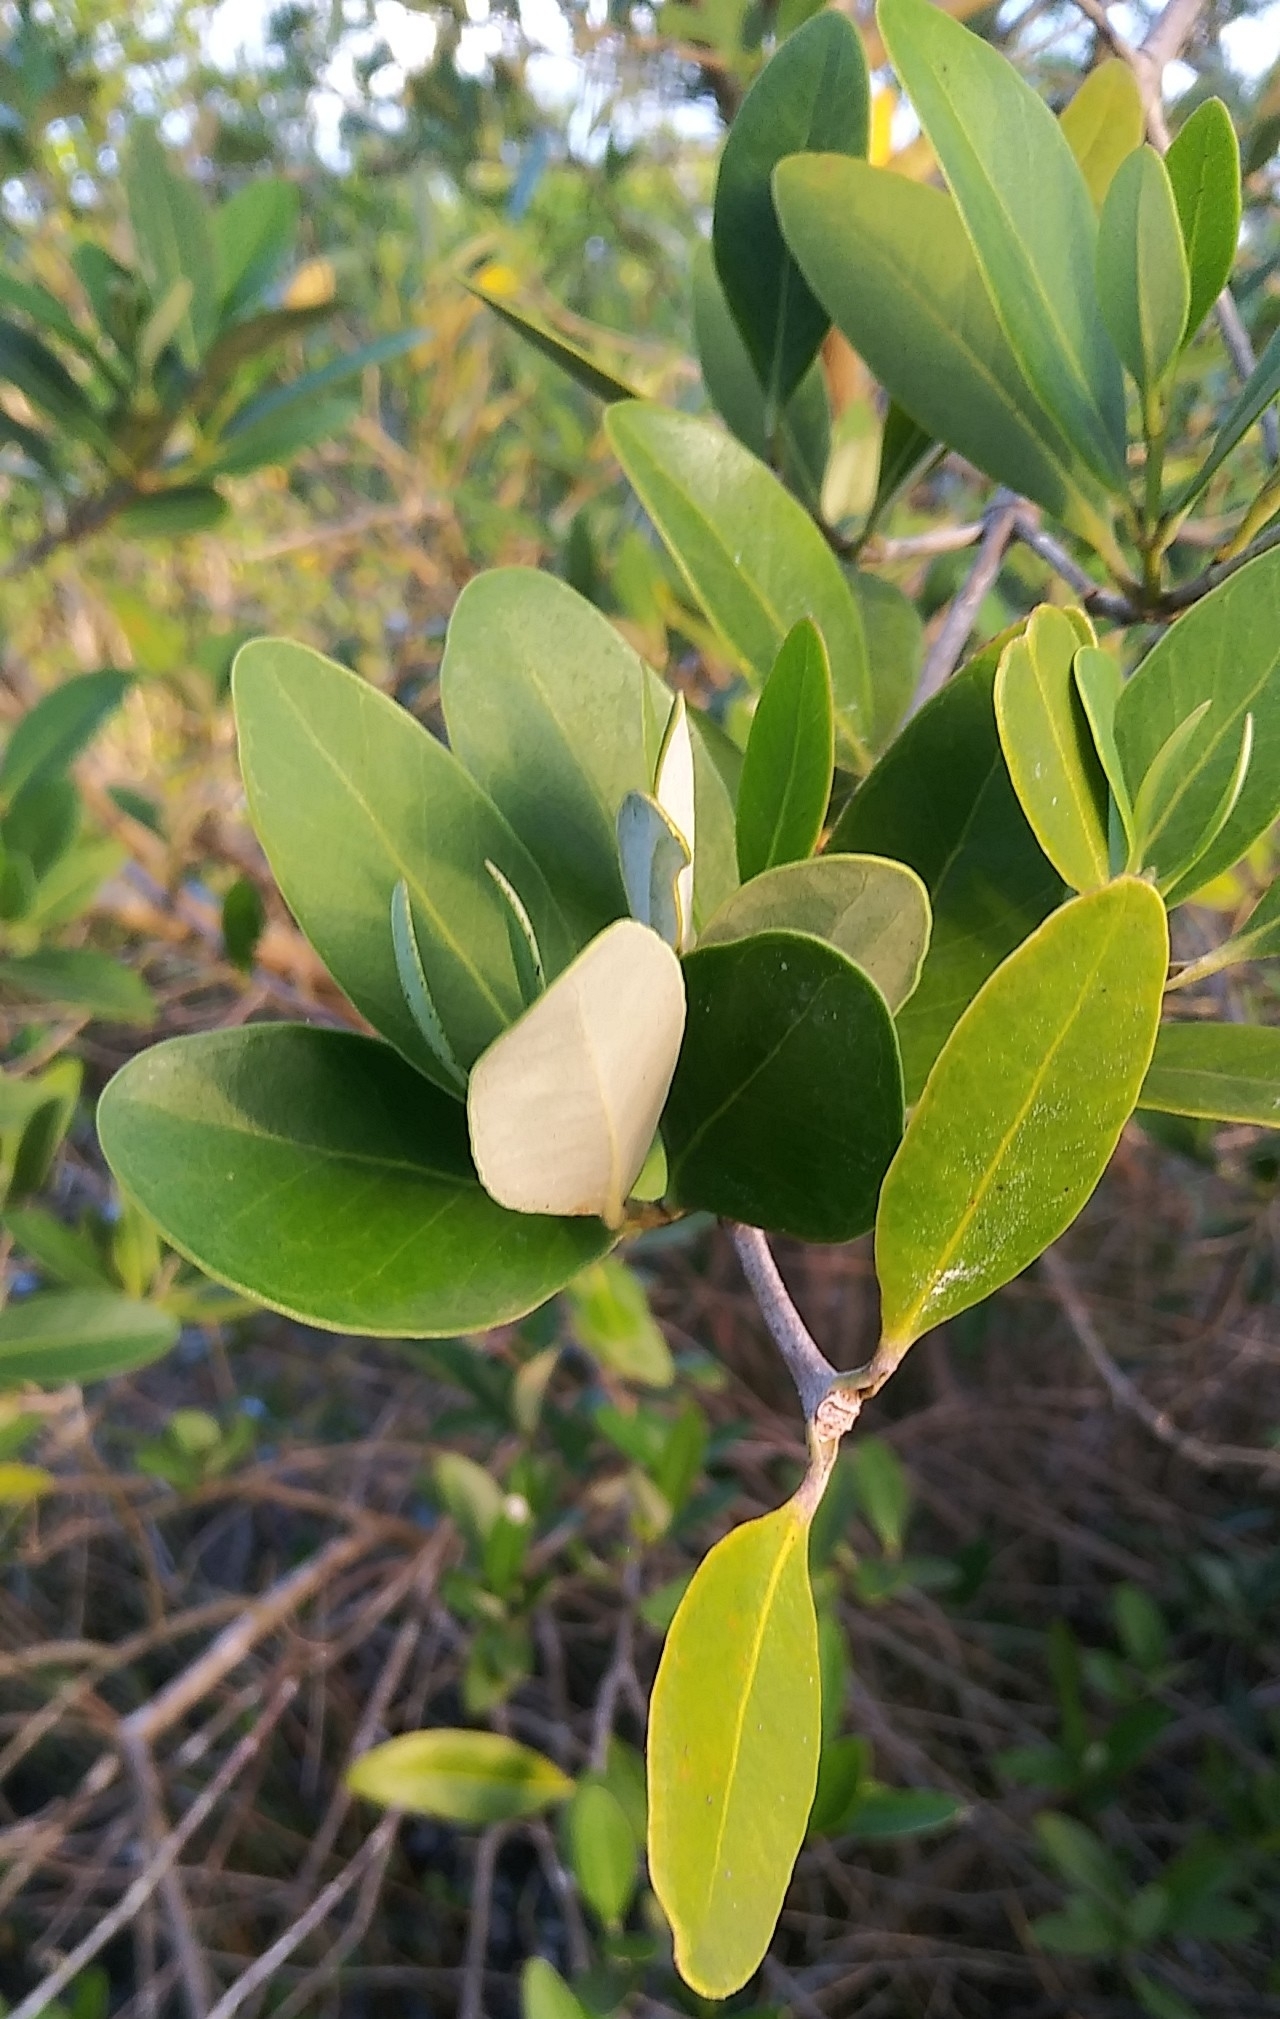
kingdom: Plantae
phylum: Tracheophyta
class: Magnoliopsida
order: Lamiales
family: Acanthaceae
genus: Avicennia
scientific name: Avicennia germinans
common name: Black mangrove
